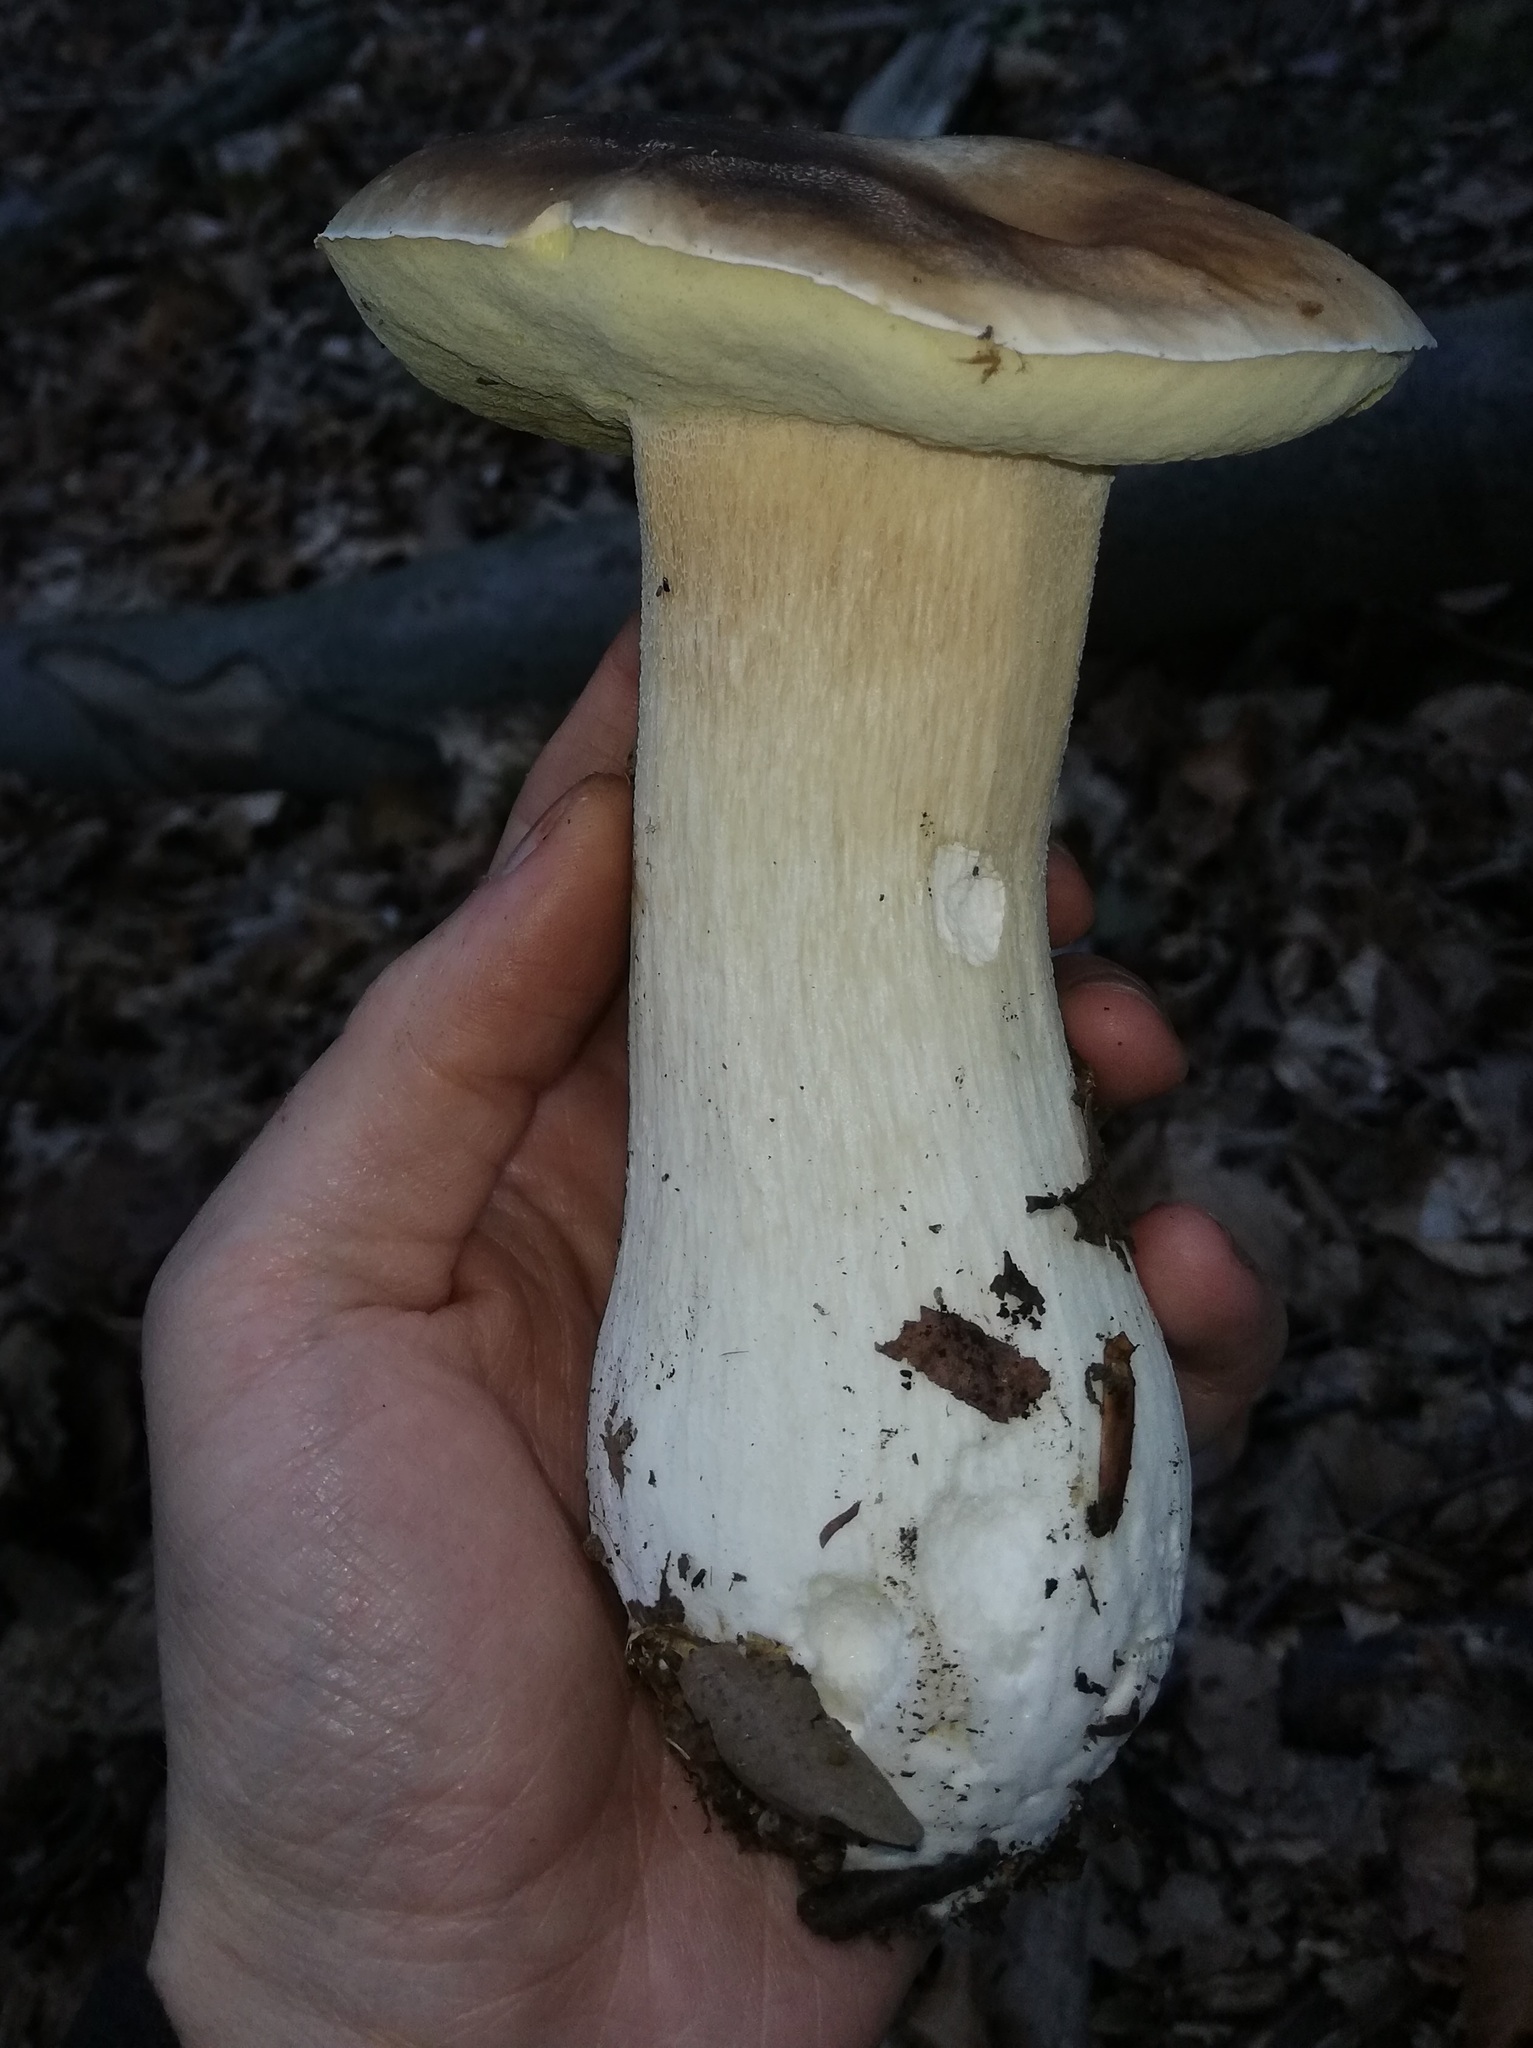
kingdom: Fungi
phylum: Basidiomycota
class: Agaricomycetes
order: Boletales
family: Boletaceae
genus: Boletus
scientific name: Boletus edulis
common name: Cep
